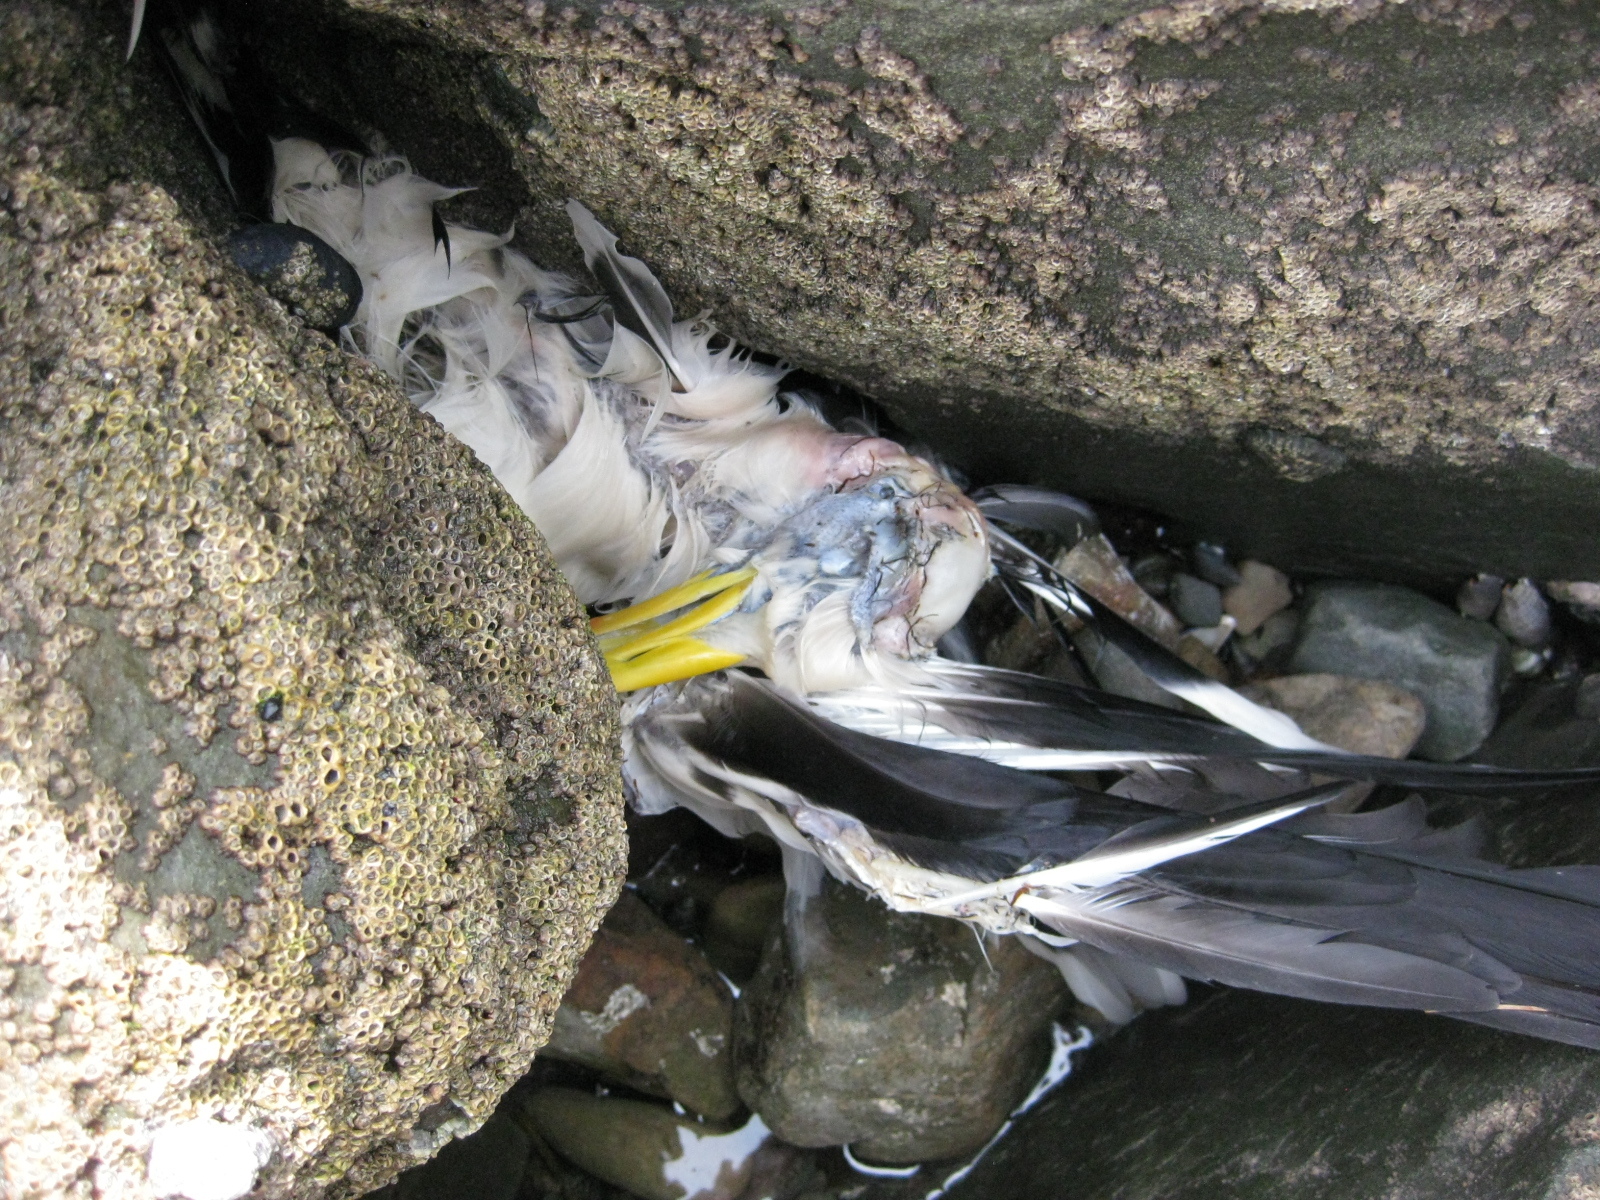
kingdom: Animalia
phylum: Chordata
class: Aves
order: Charadriiformes
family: Laridae
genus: Larus
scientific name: Larus dominicanus
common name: Kelp gull
